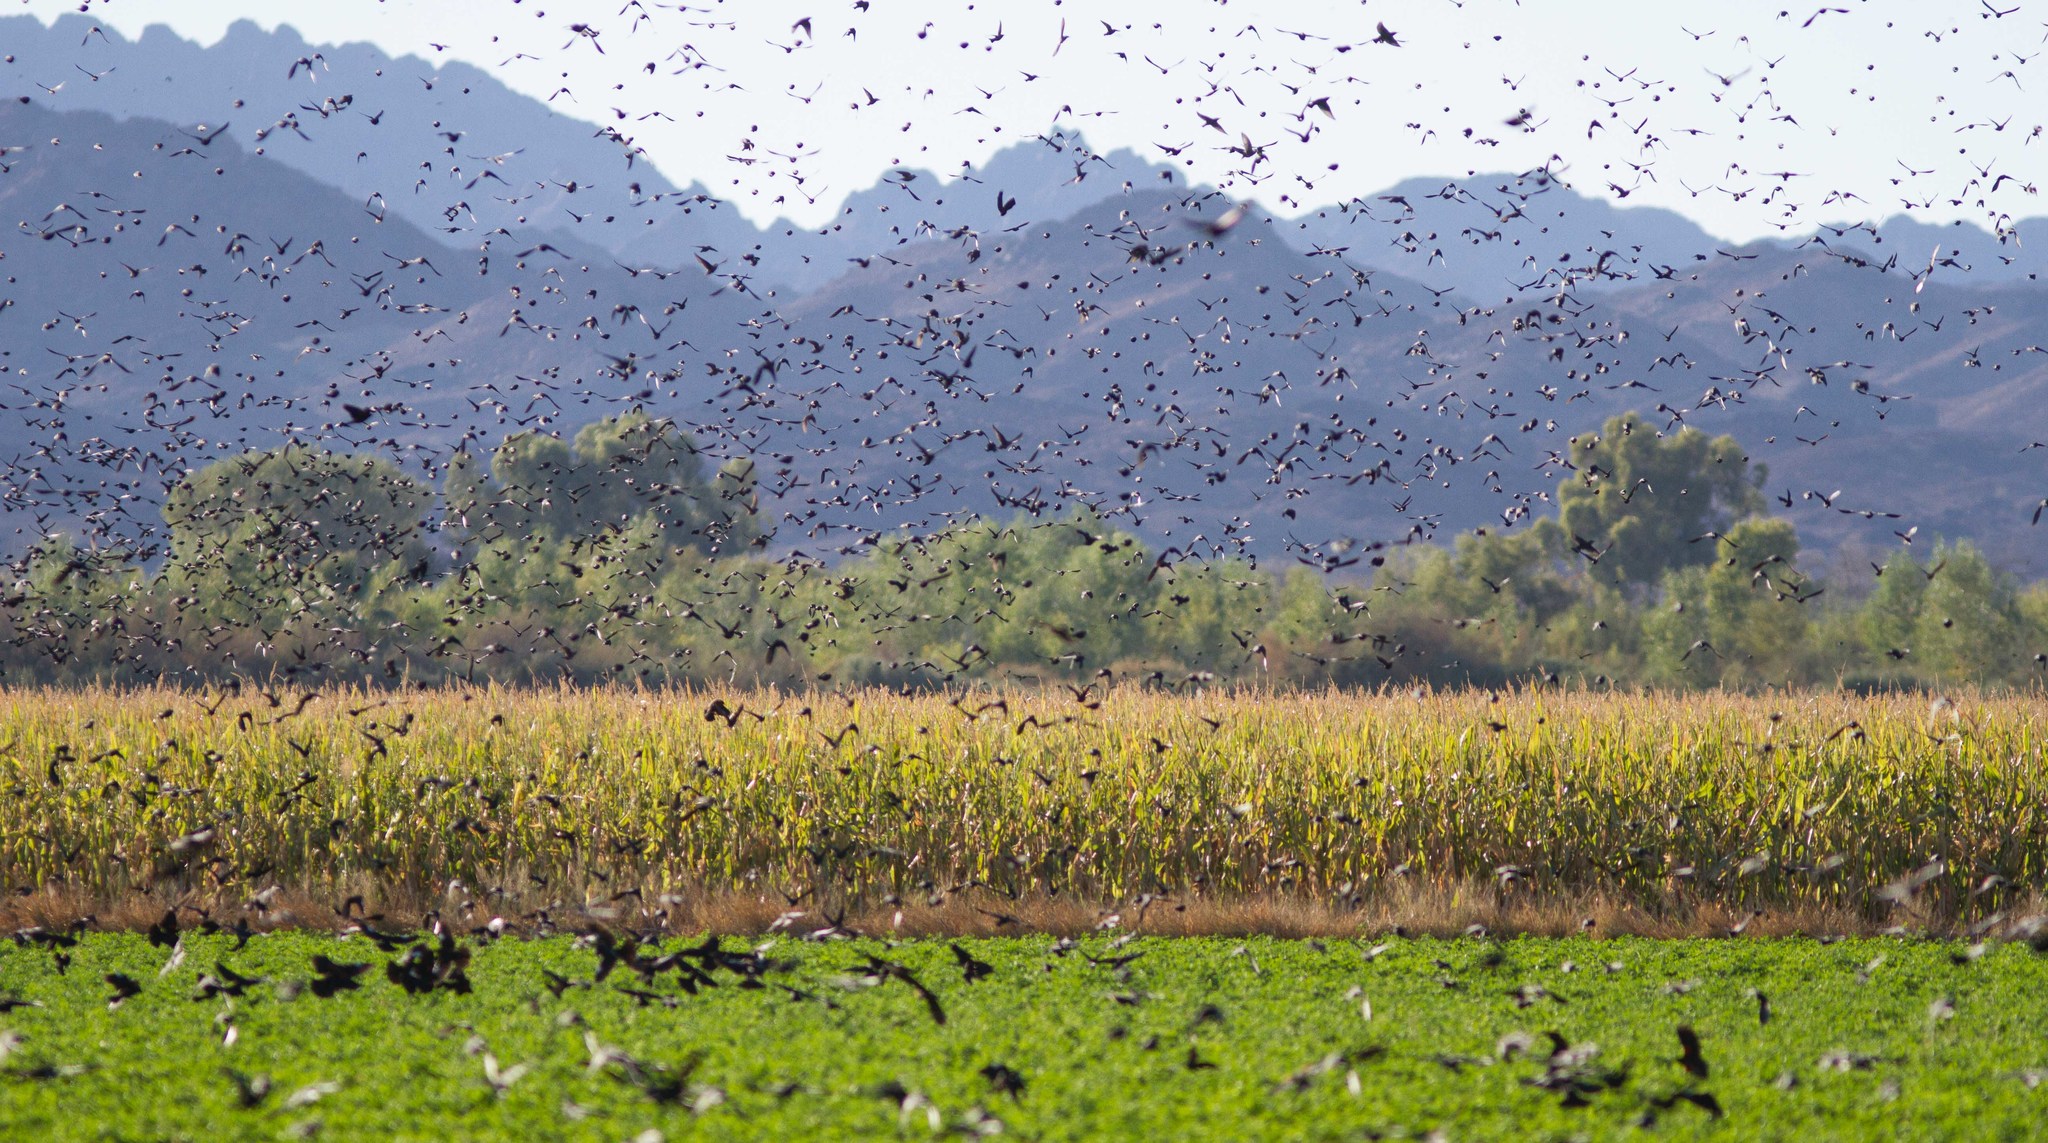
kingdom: Animalia
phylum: Chordata
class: Aves
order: Passeriformes
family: Icteridae
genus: Xanthocephalus
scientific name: Xanthocephalus xanthocephalus
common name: Yellow-headed blackbird
